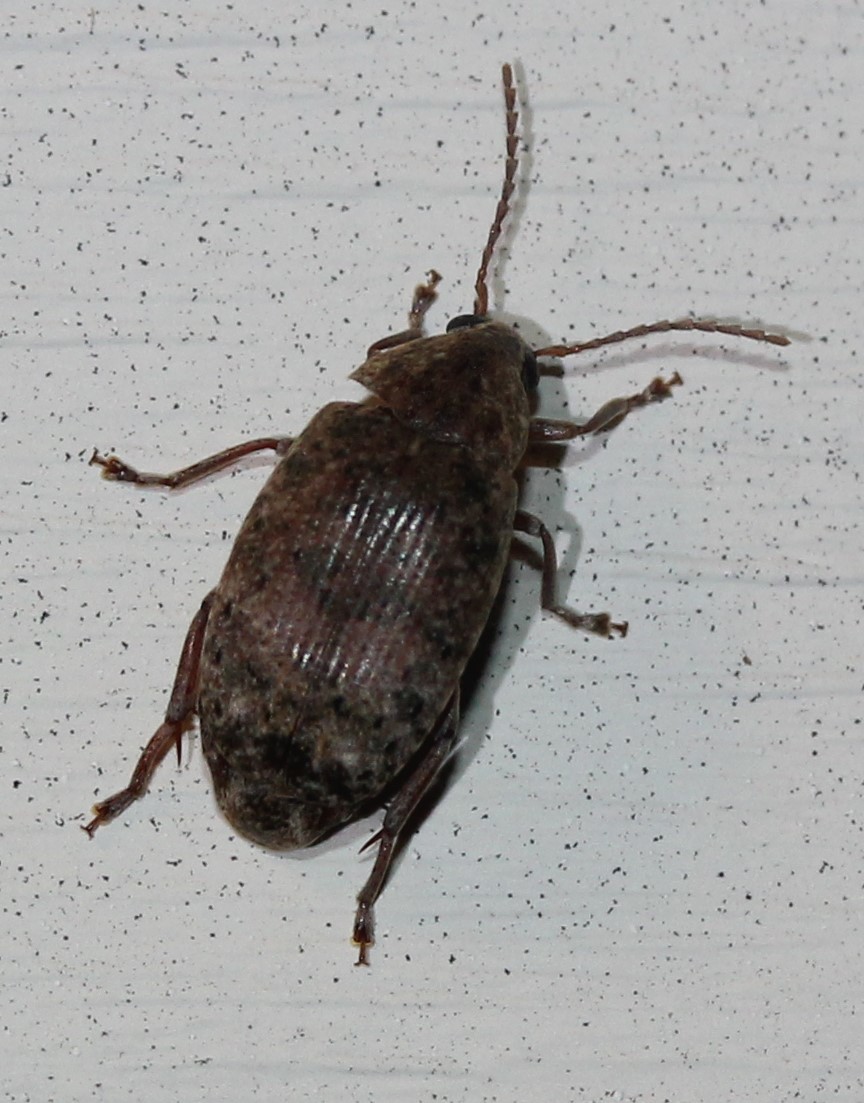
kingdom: Animalia
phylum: Arthropoda
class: Insecta
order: Coleoptera
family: Chrysomelidae
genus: Amblycerus
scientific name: Amblycerus robiniae
